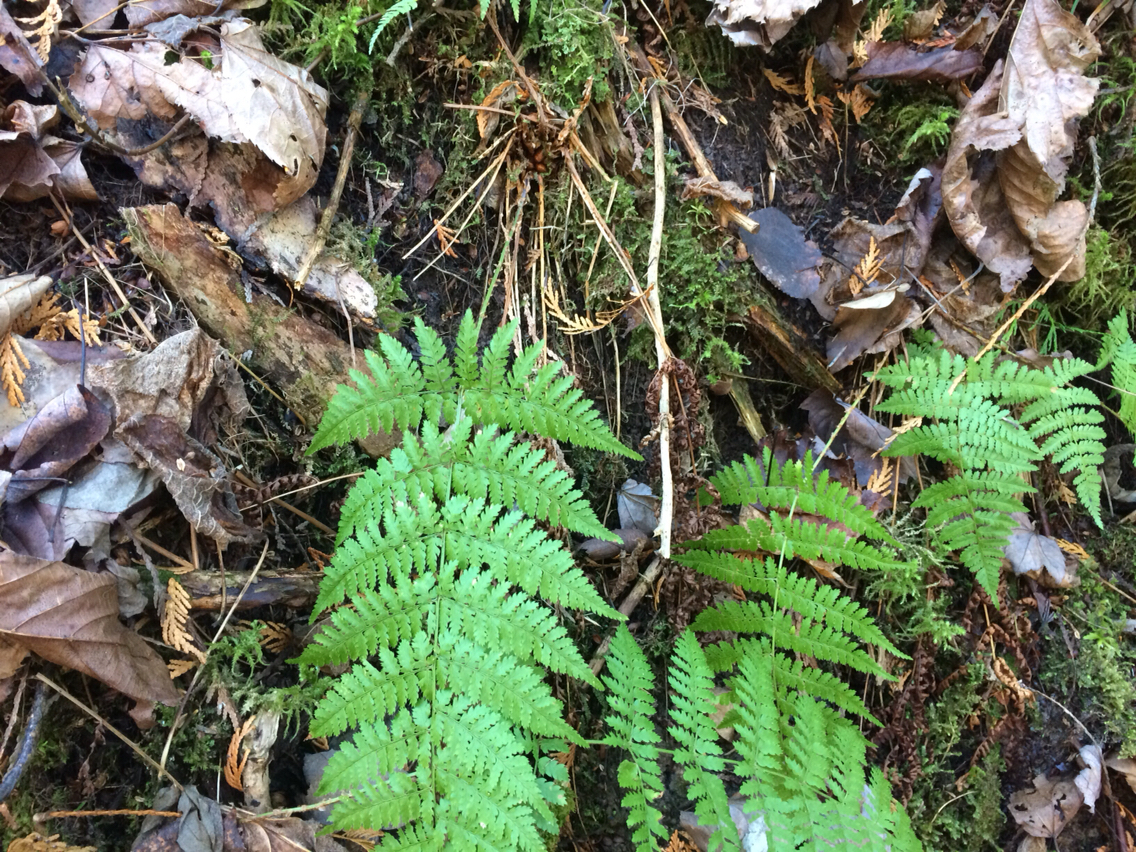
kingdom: Plantae
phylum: Tracheophyta
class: Polypodiopsida
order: Polypodiales
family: Dryopteridaceae
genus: Dryopteris
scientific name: Dryopteris carthusiana
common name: Narrow buckler-fern
